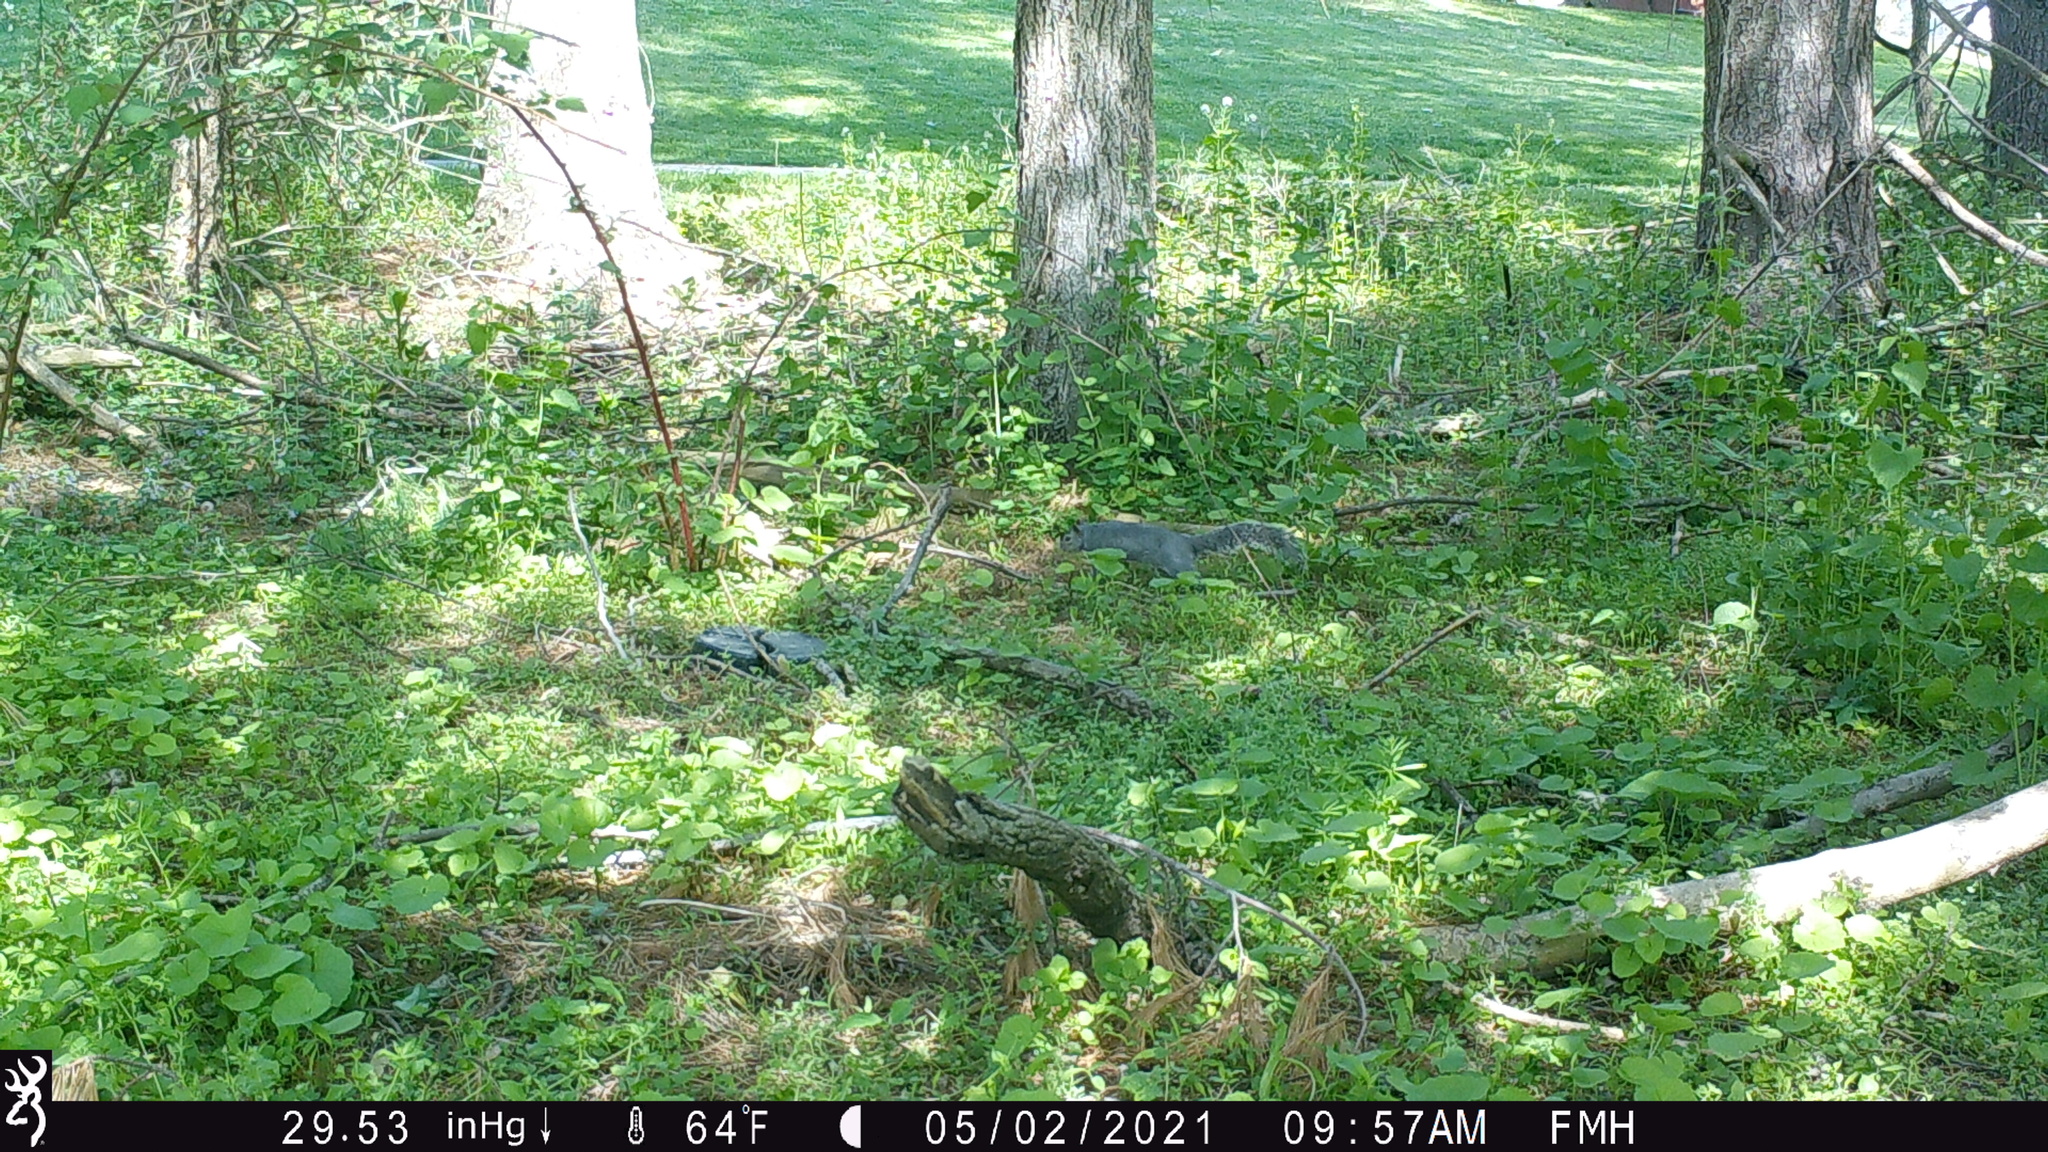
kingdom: Animalia
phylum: Chordata
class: Mammalia
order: Rodentia
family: Sciuridae
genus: Sciurus
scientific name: Sciurus carolinensis
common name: Eastern gray squirrel
